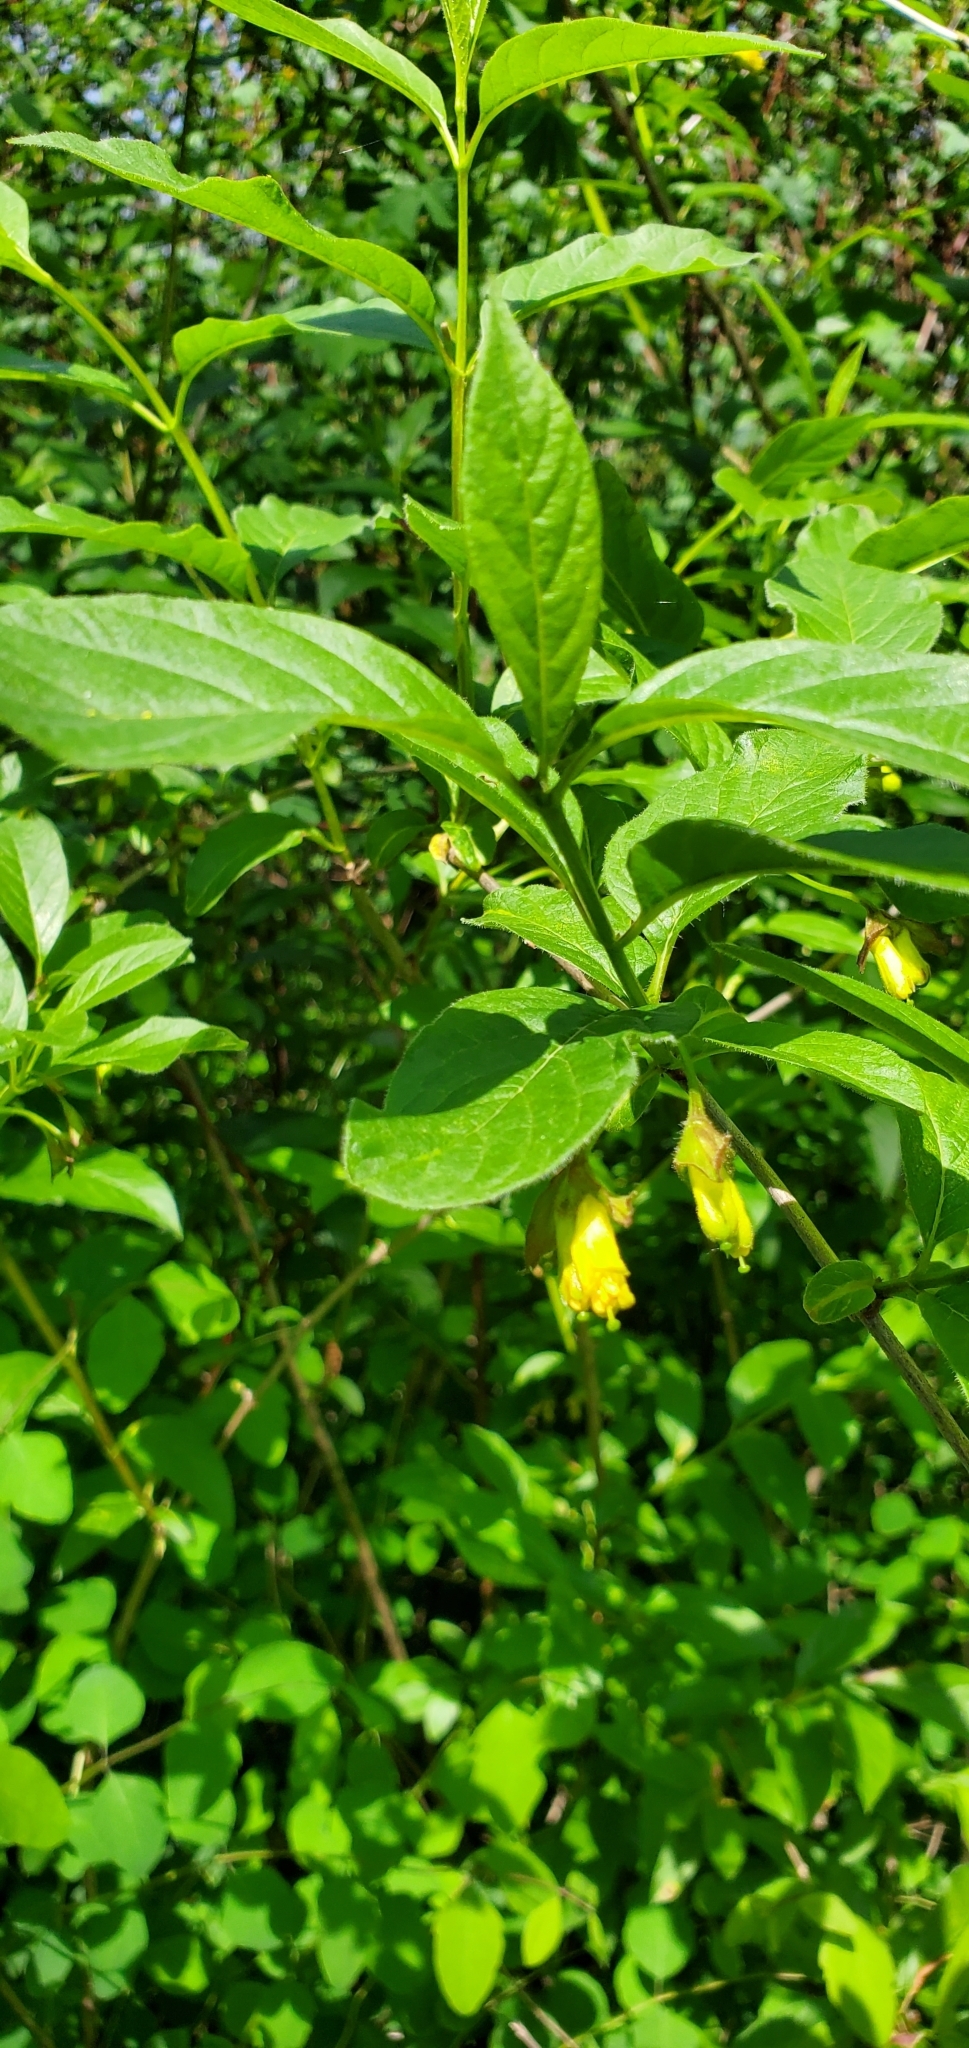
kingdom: Plantae
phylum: Tracheophyta
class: Magnoliopsida
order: Dipsacales
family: Caprifoliaceae
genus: Lonicera
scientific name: Lonicera involucrata
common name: Californian honeysuckle
